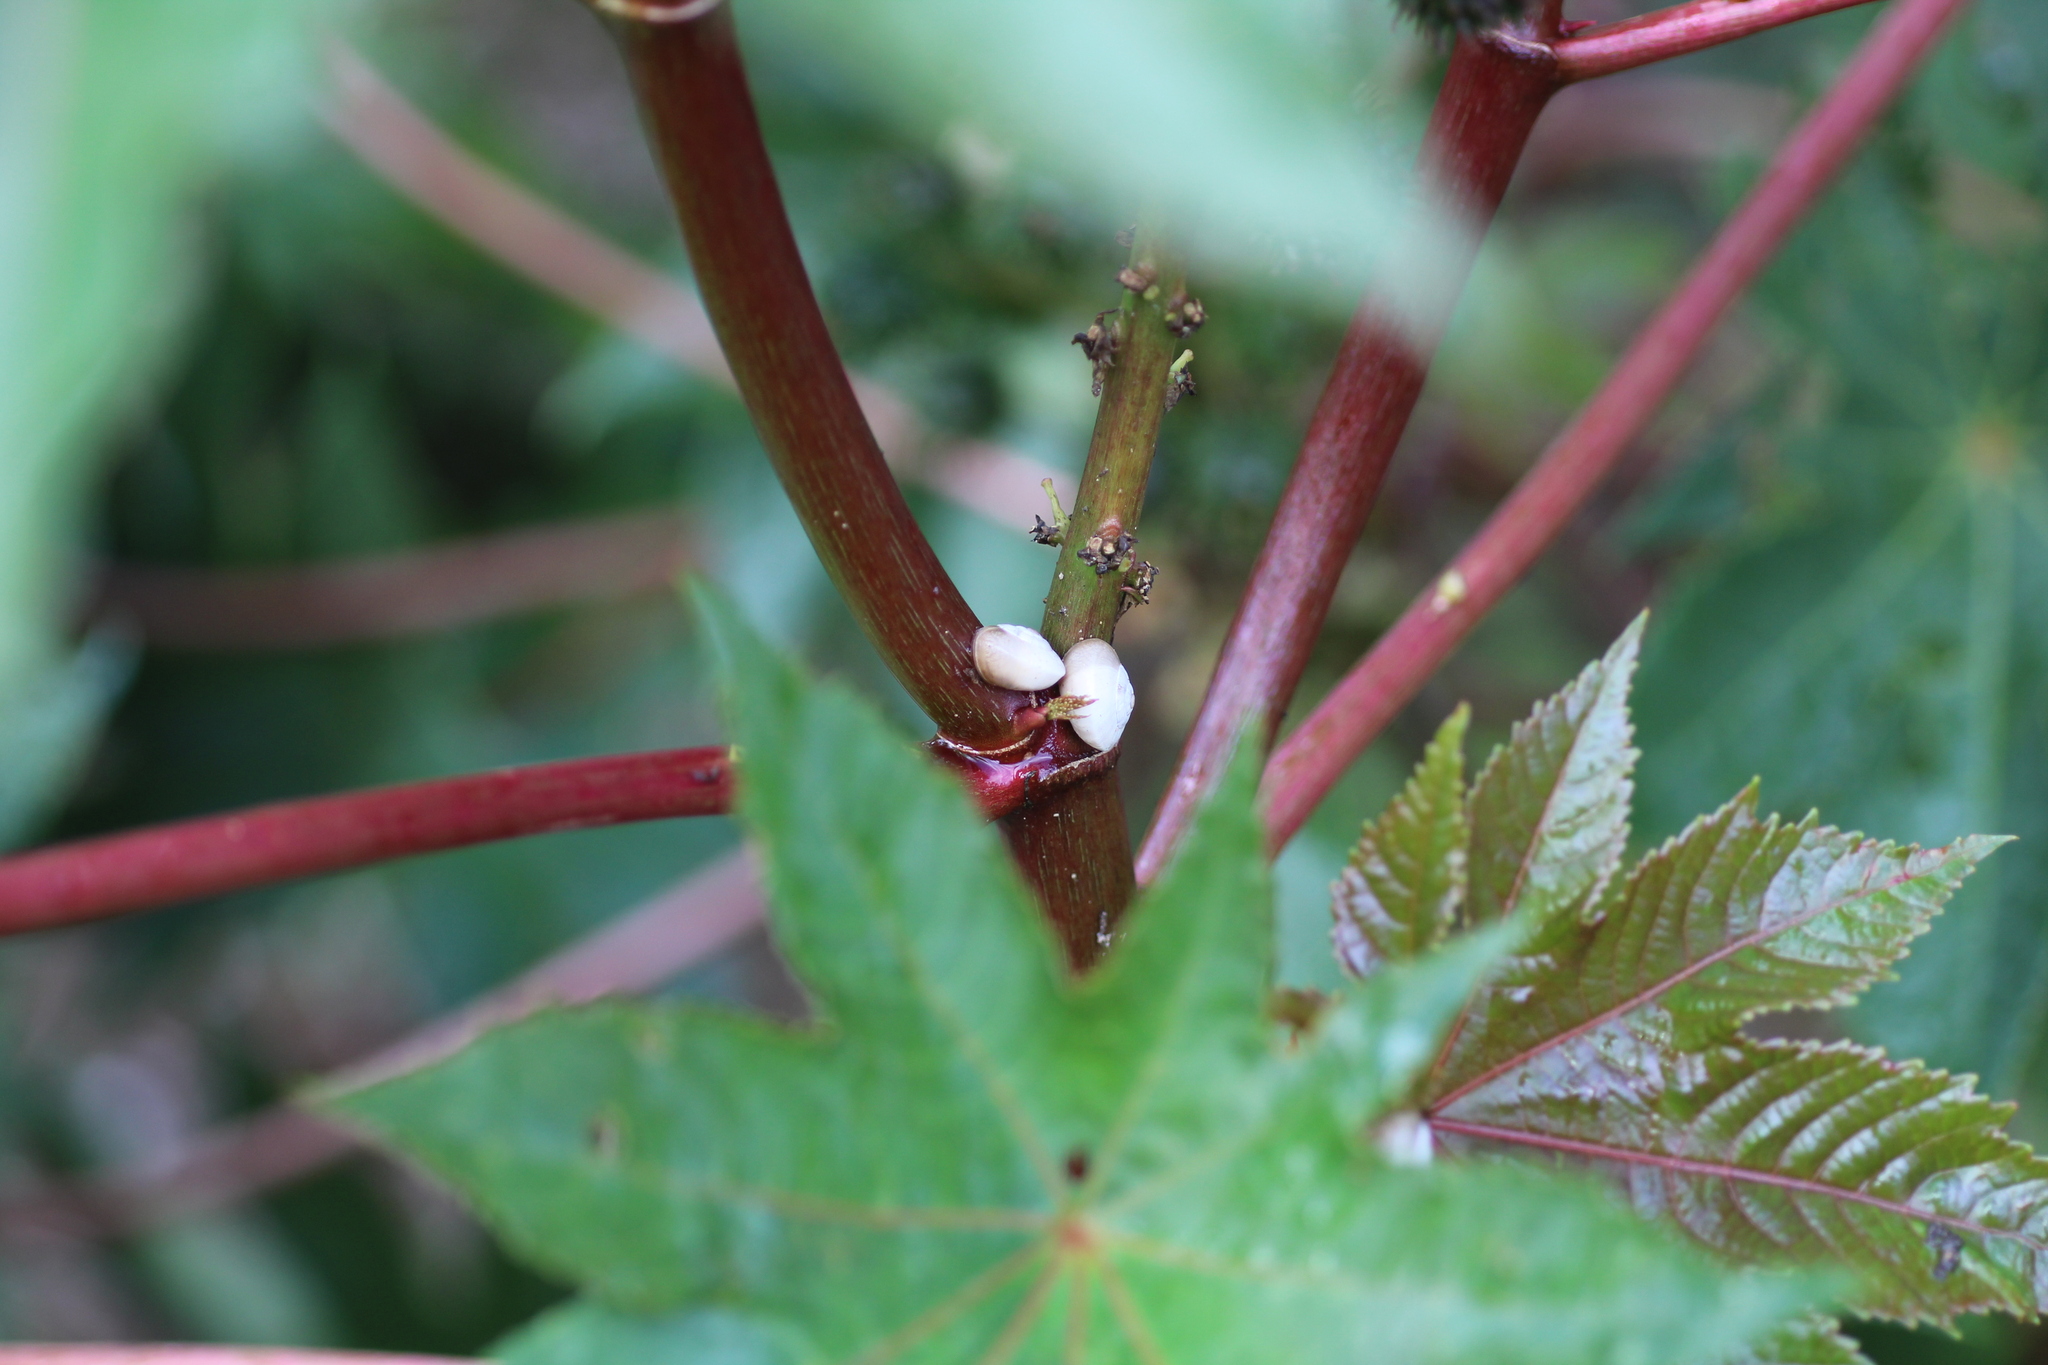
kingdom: Animalia
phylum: Mollusca
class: Gastropoda
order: Stylommatophora
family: Helicidae
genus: Theba
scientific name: Theba pisana
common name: White snail
